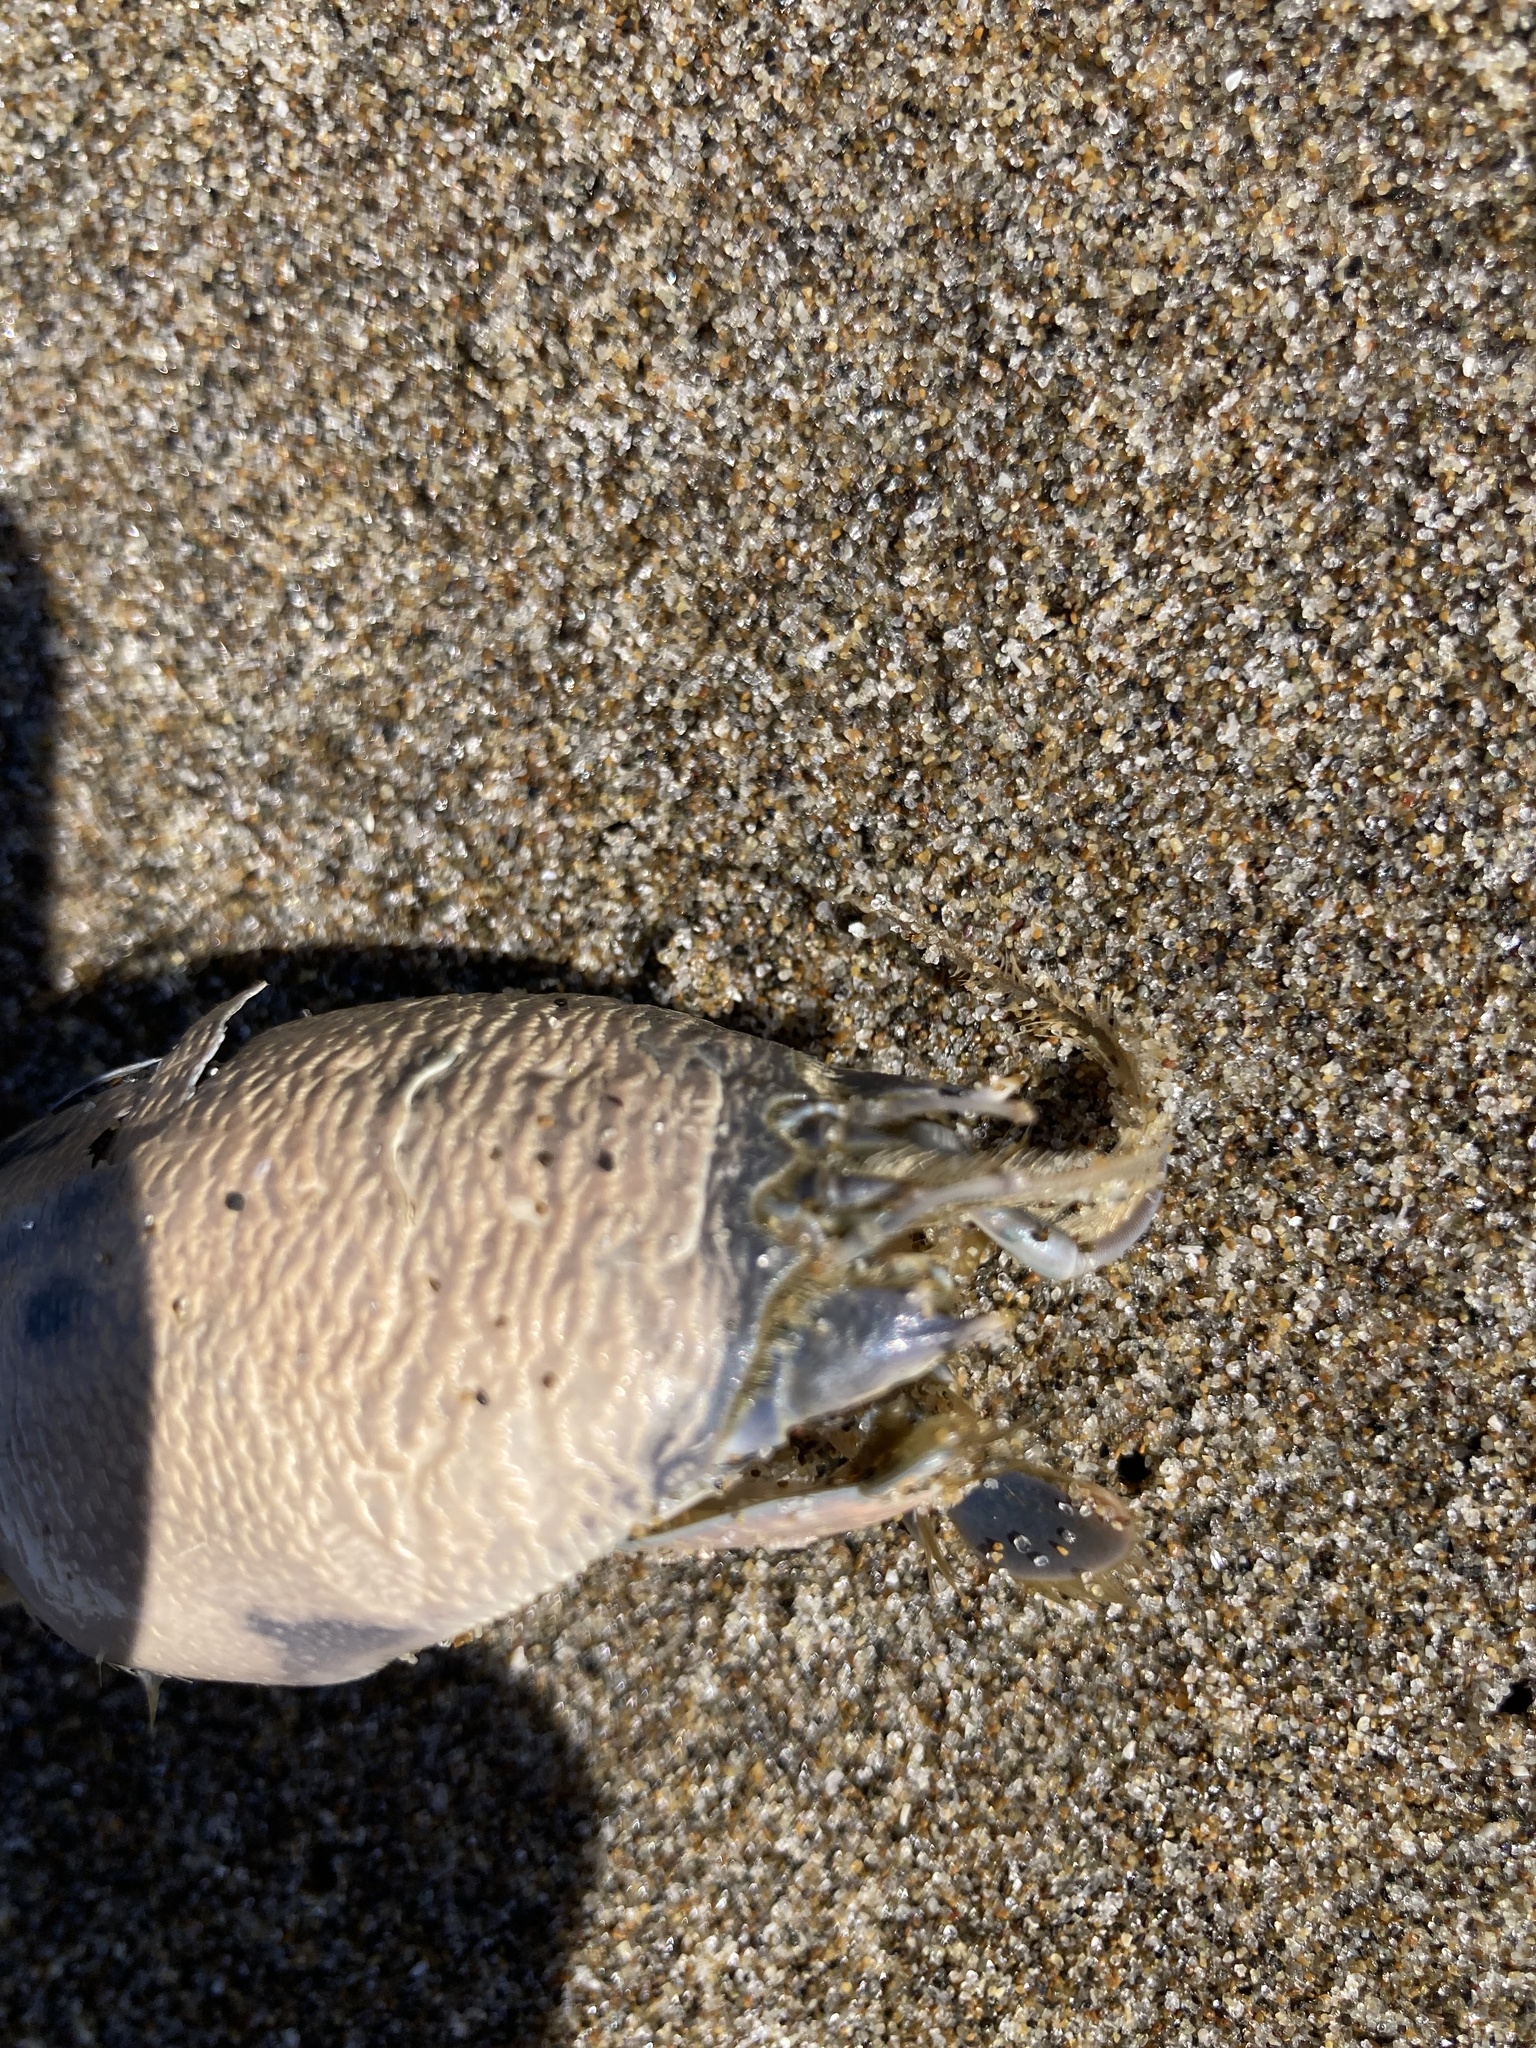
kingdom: Animalia
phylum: Arthropoda
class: Malacostraca
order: Decapoda
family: Hippidae
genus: Emerita
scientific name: Emerita analoga
